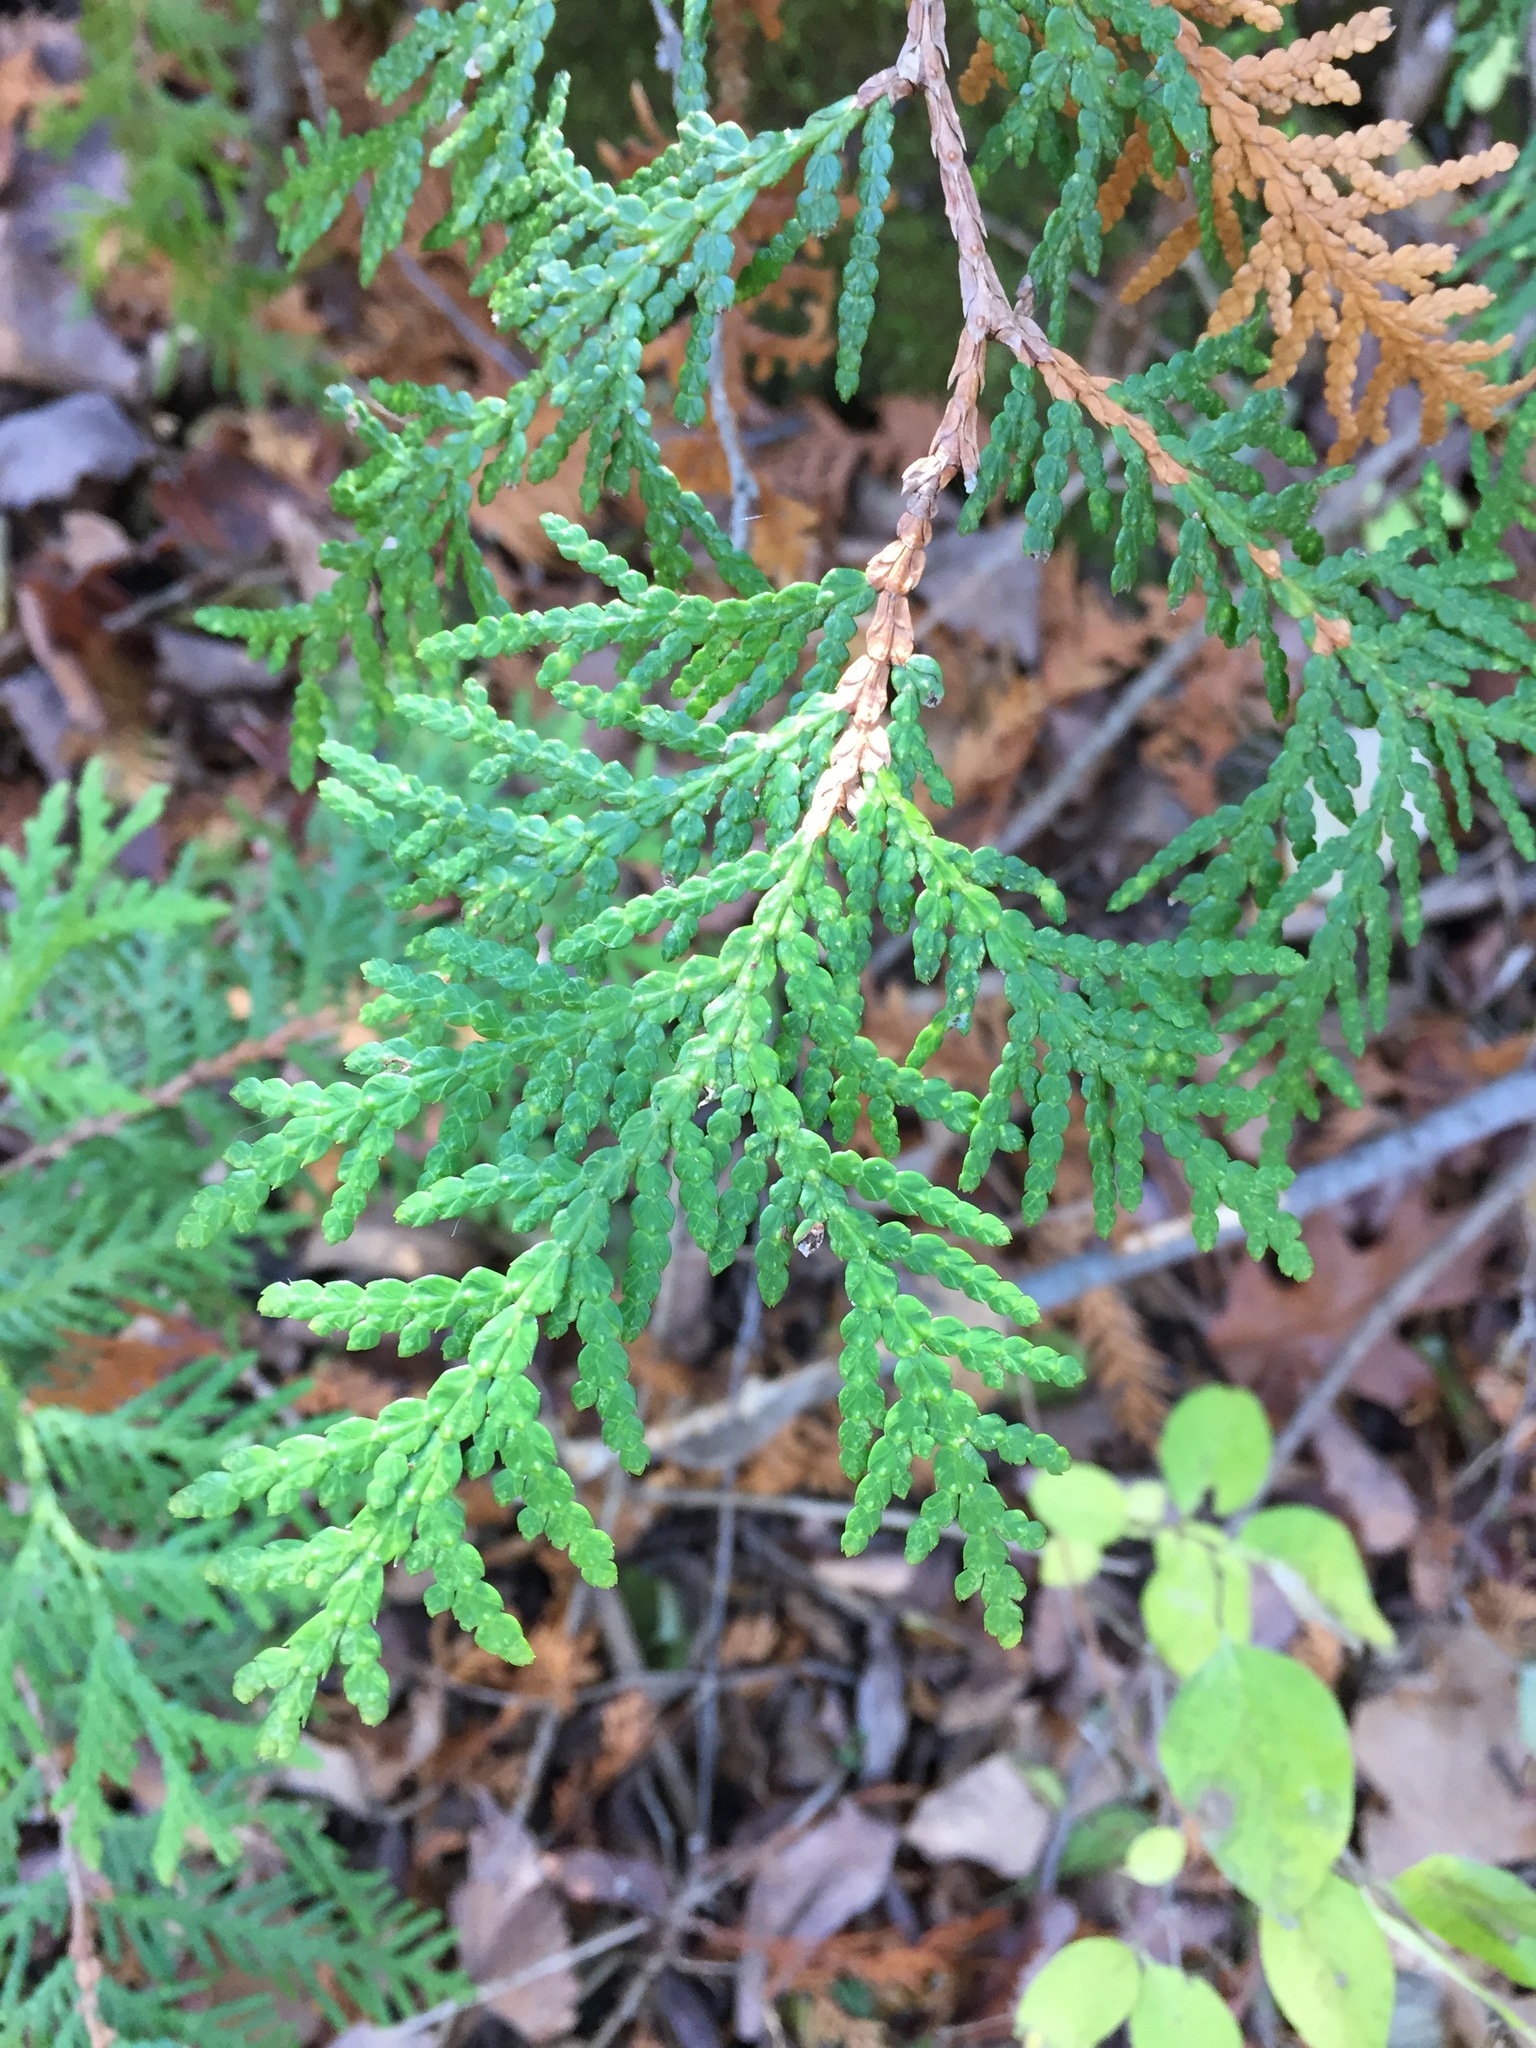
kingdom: Plantae
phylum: Tracheophyta
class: Pinopsida
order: Pinales
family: Cupressaceae
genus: Thuja
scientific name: Thuja occidentalis
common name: Northern white-cedar
